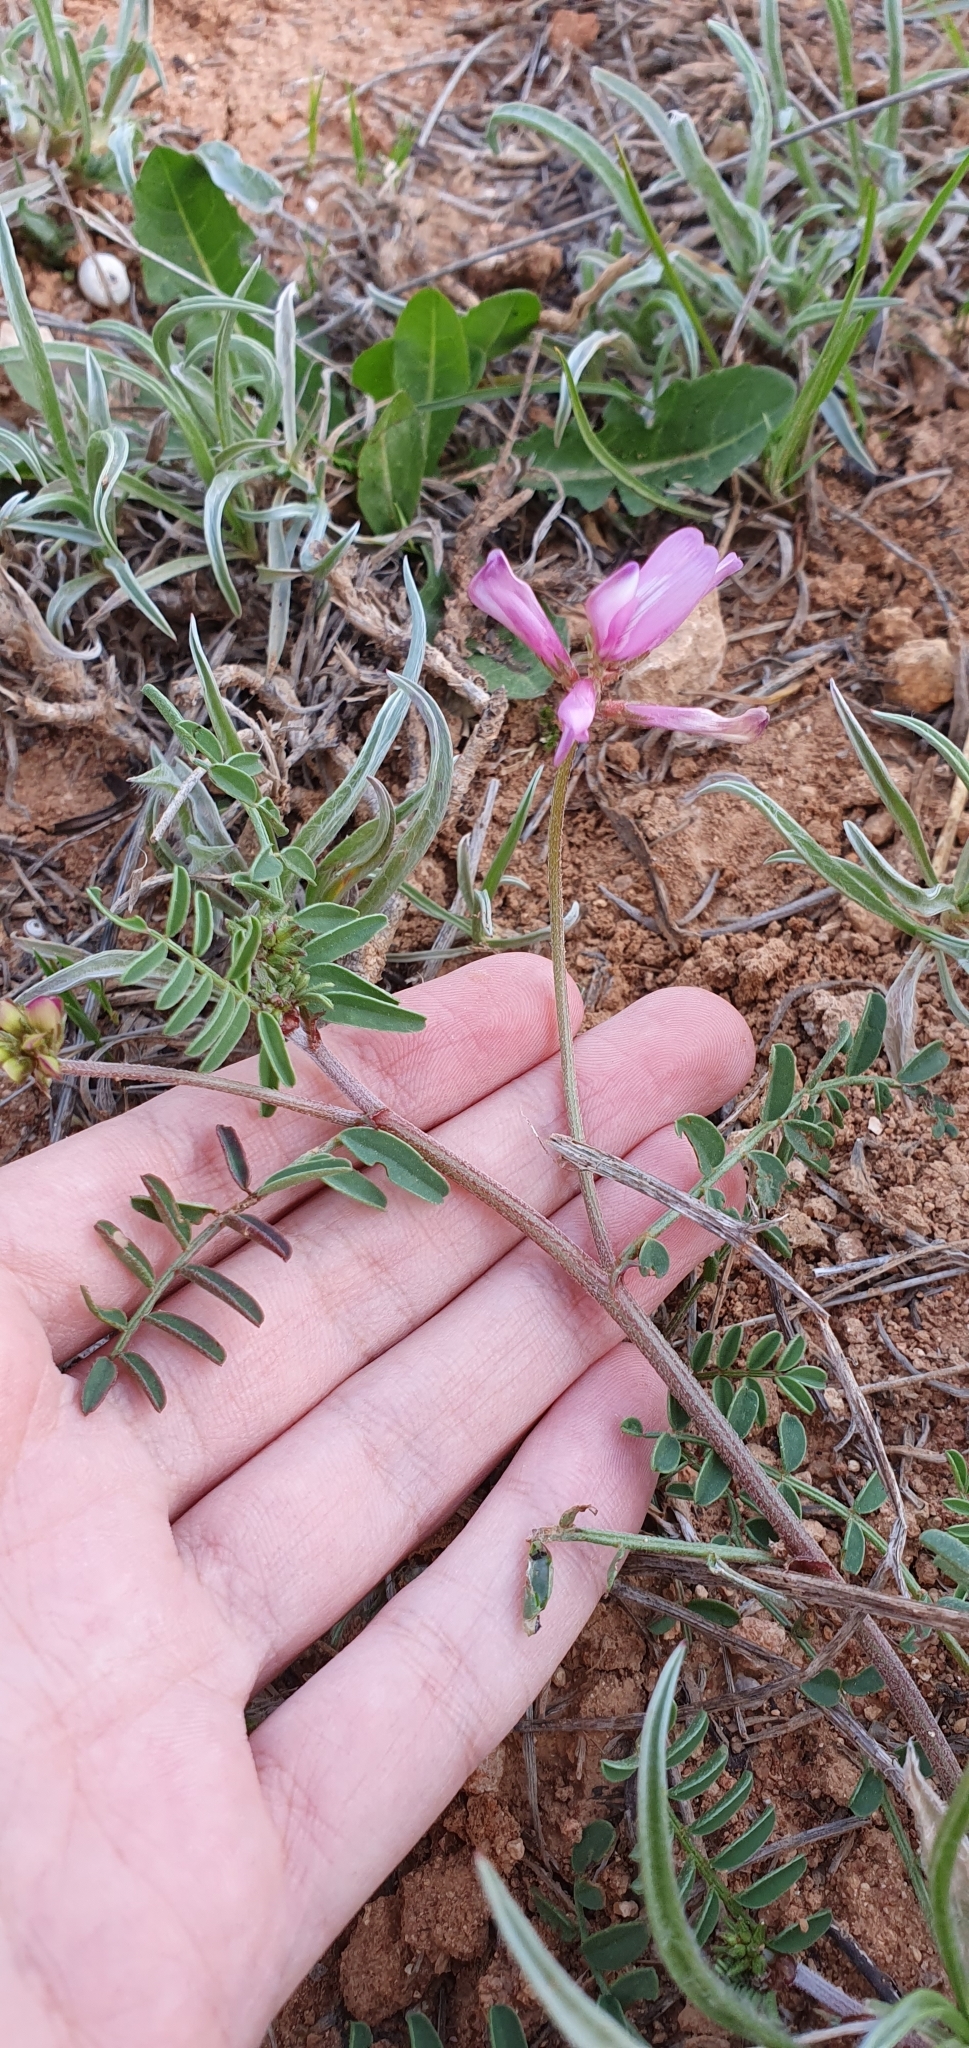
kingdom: Plantae
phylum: Tracheophyta
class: Magnoliopsida
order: Fabales
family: Fabaceae
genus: Sulla
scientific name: Sulla glomerata
